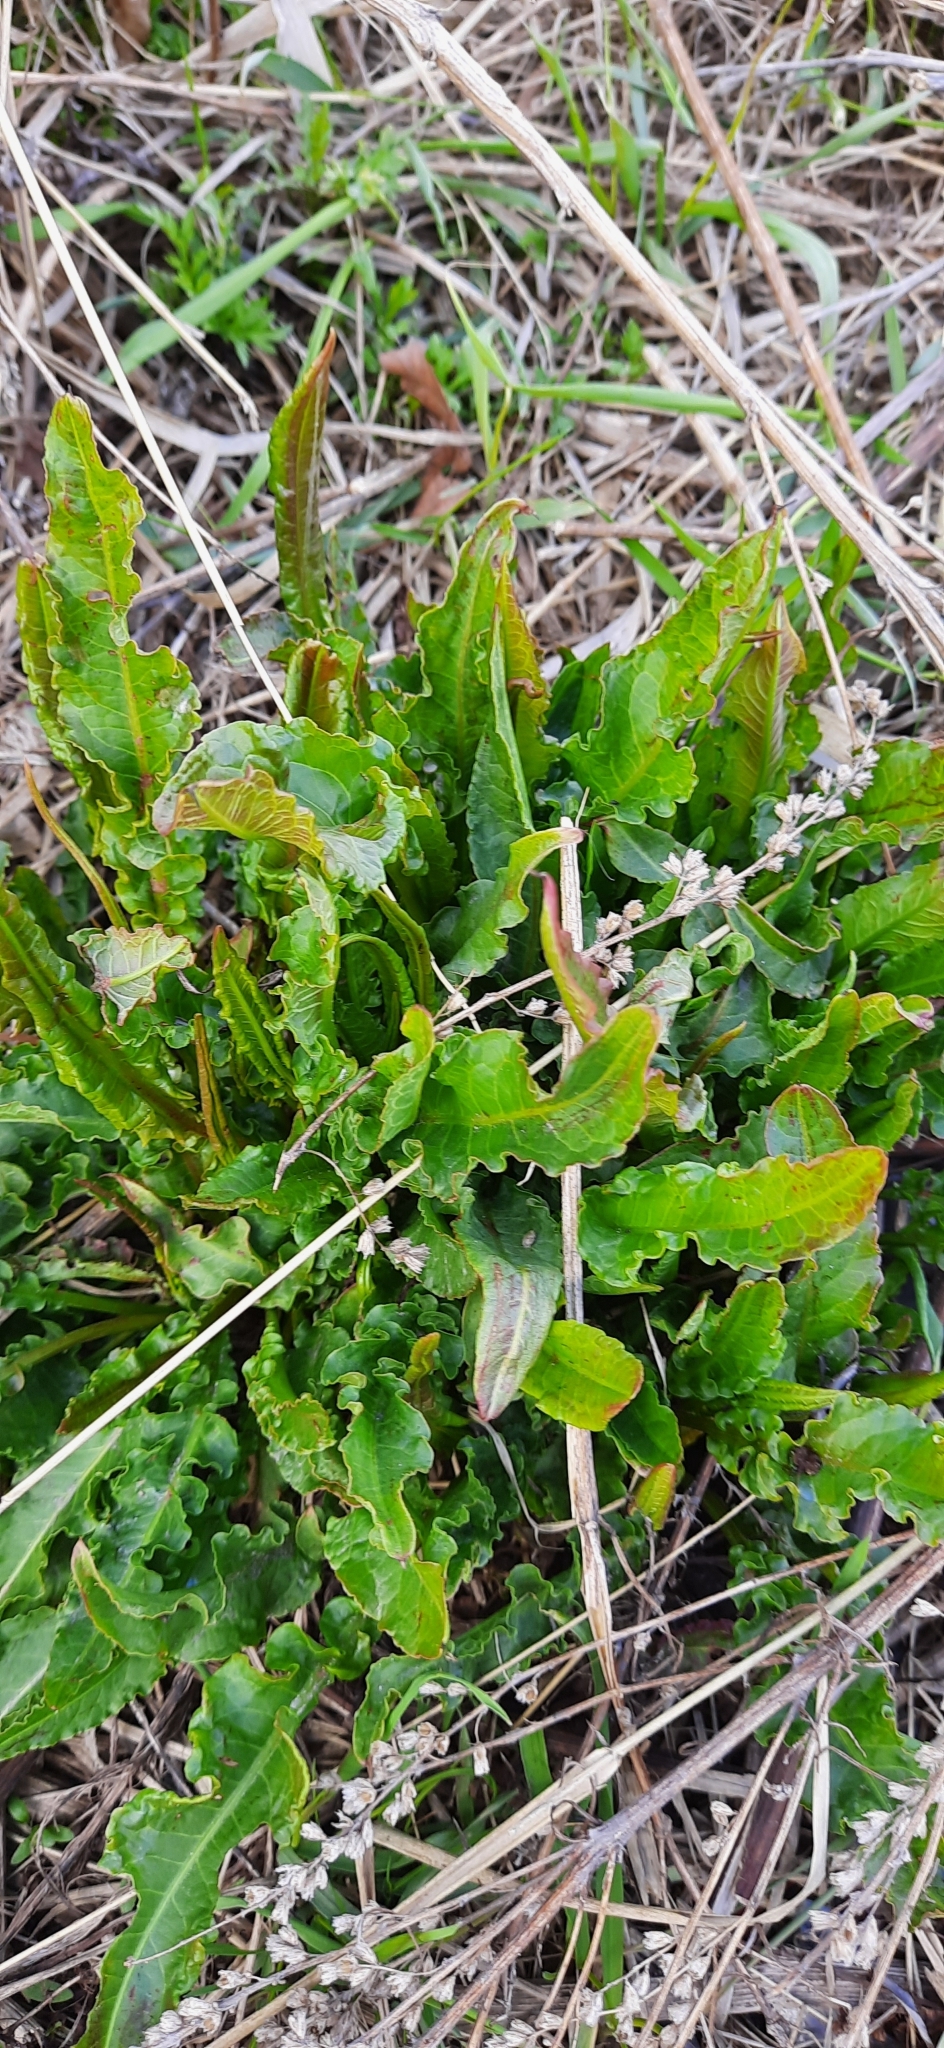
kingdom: Plantae
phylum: Tracheophyta
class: Magnoliopsida
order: Caryophyllales
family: Polygonaceae
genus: Rumex
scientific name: Rumex pseudonatronatus
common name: Field dock
